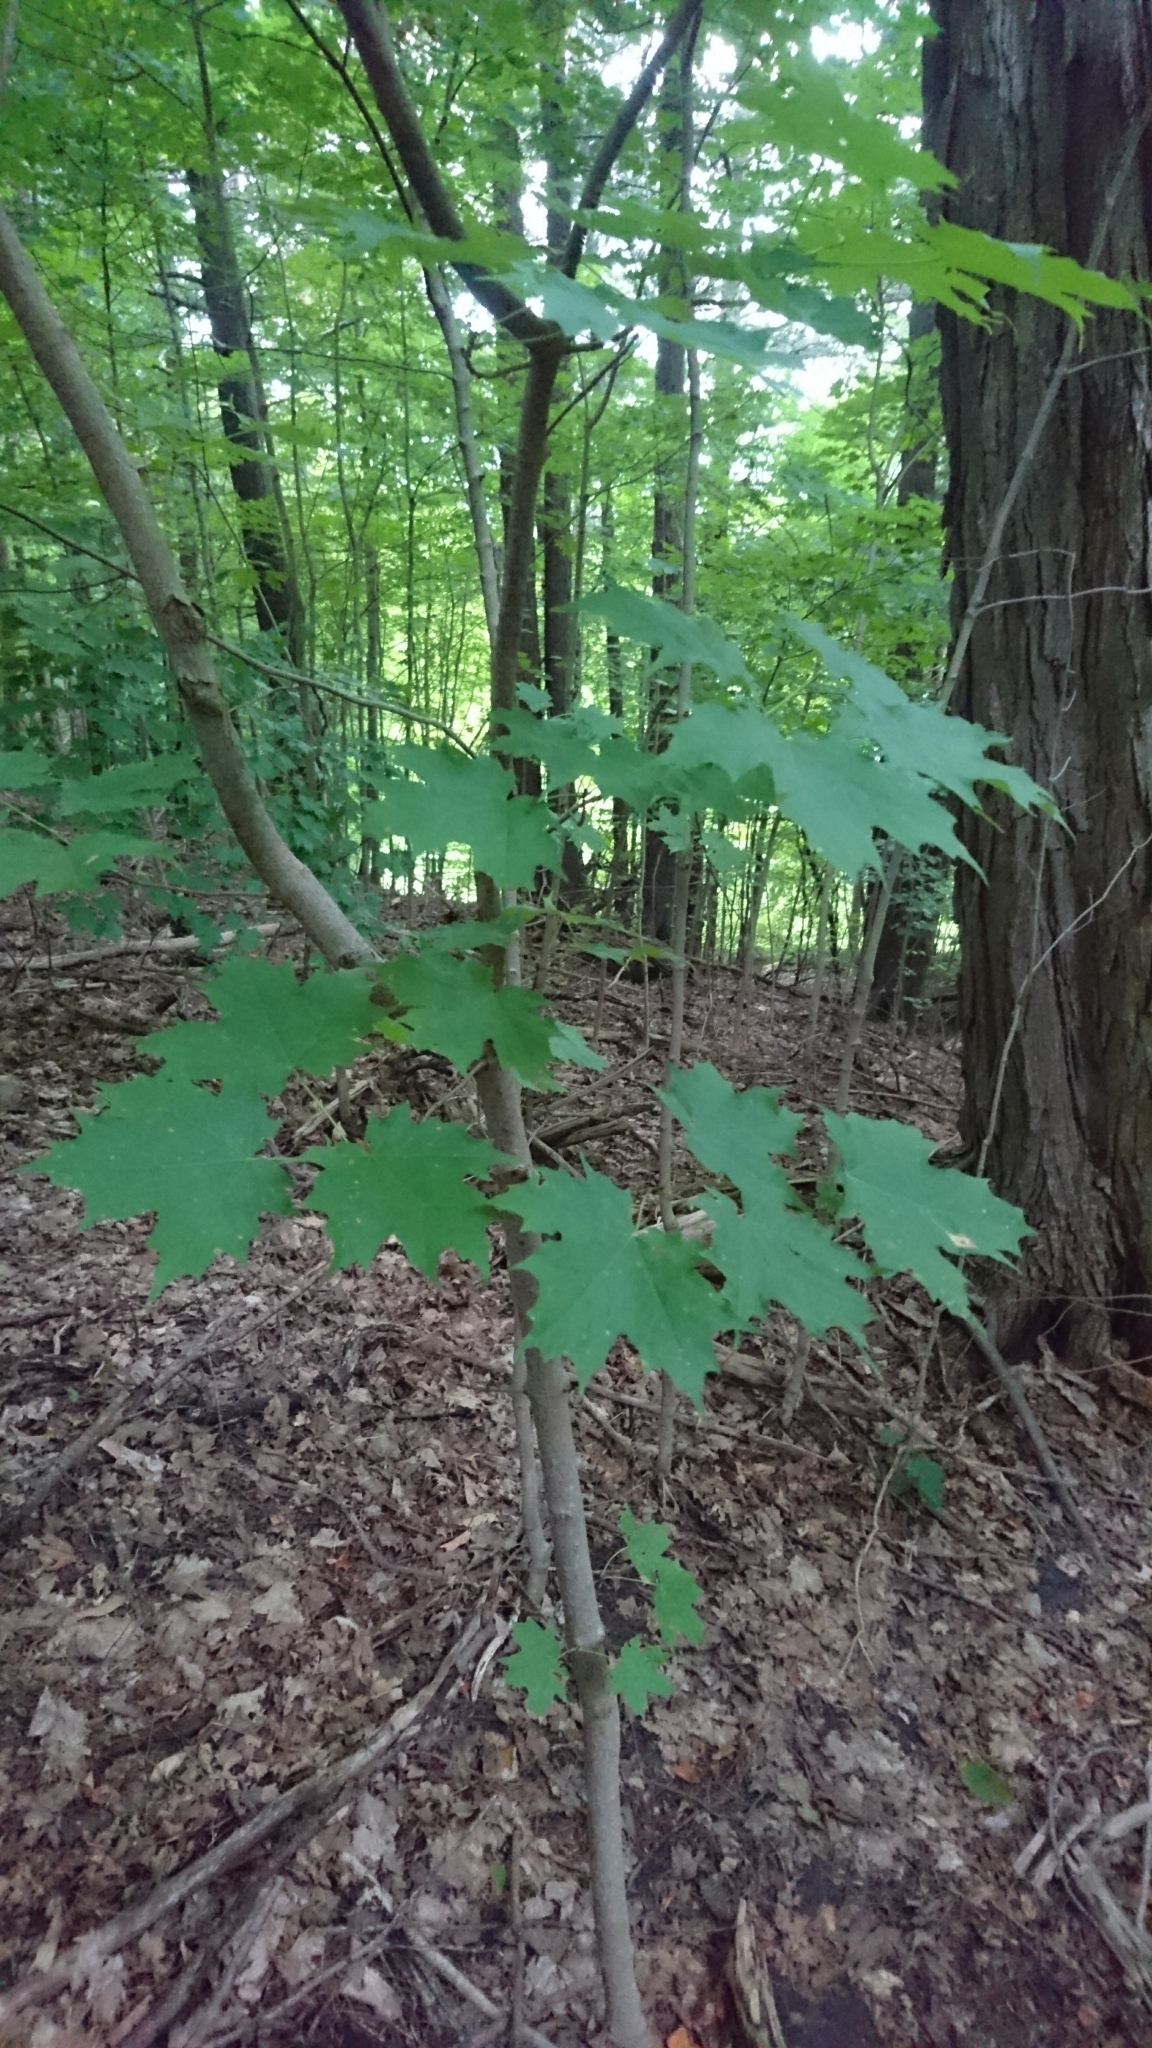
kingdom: Plantae
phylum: Tracheophyta
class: Magnoliopsida
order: Sapindales
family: Sapindaceae
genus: Acer
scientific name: Acer saccharum
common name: Sugar maple
